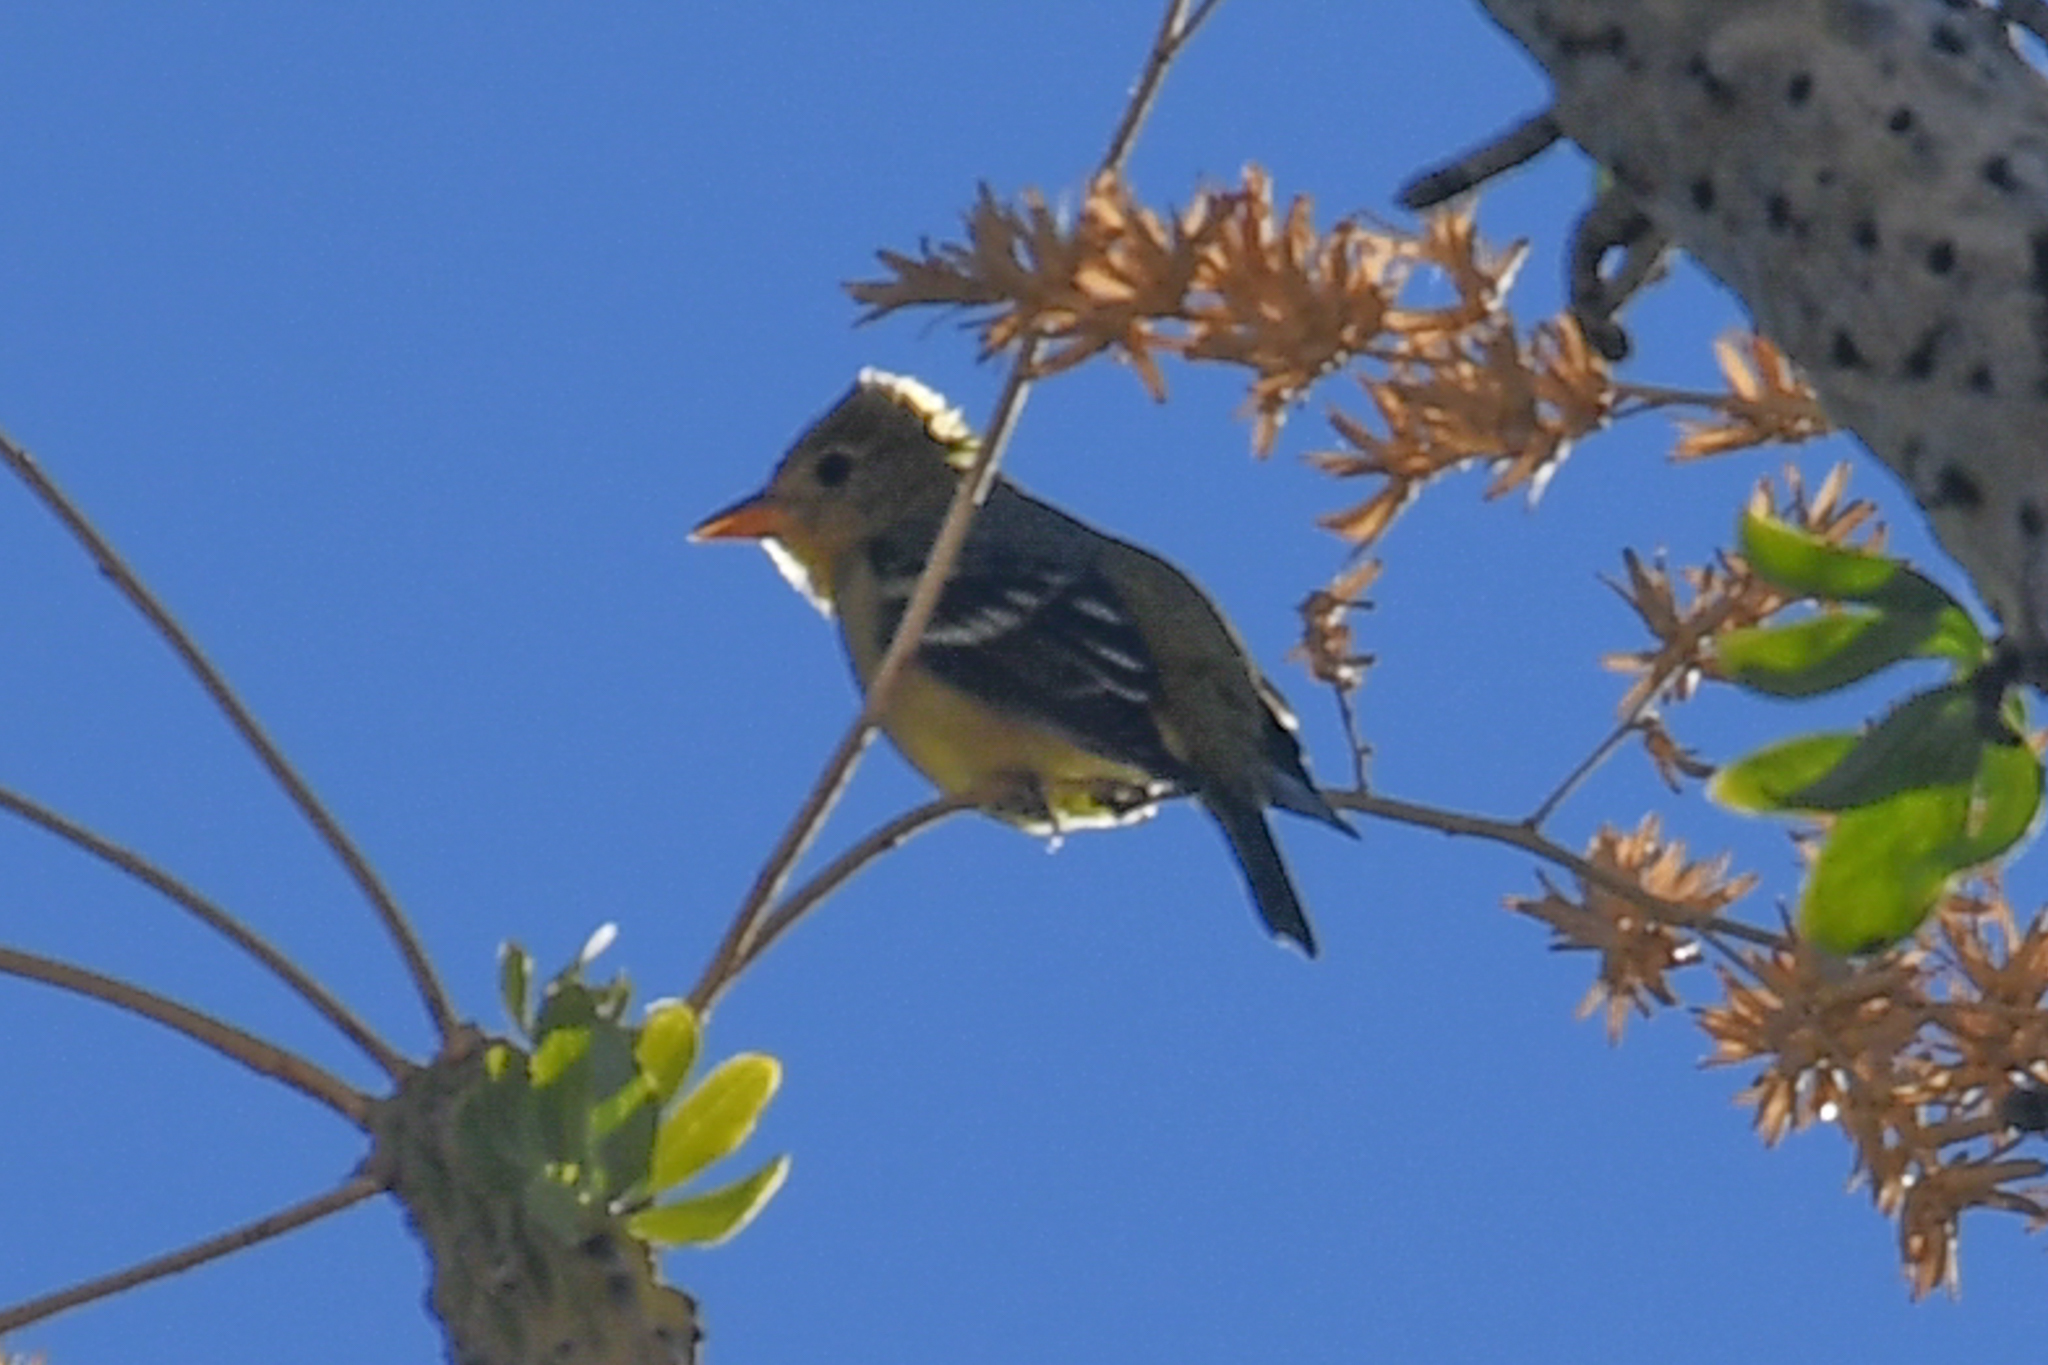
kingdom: Animalia
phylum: Chordata
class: Aves
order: Passeriformes
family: Cardinalidae
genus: Piranga
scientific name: Piranga ludoviciana
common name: Western tanager
